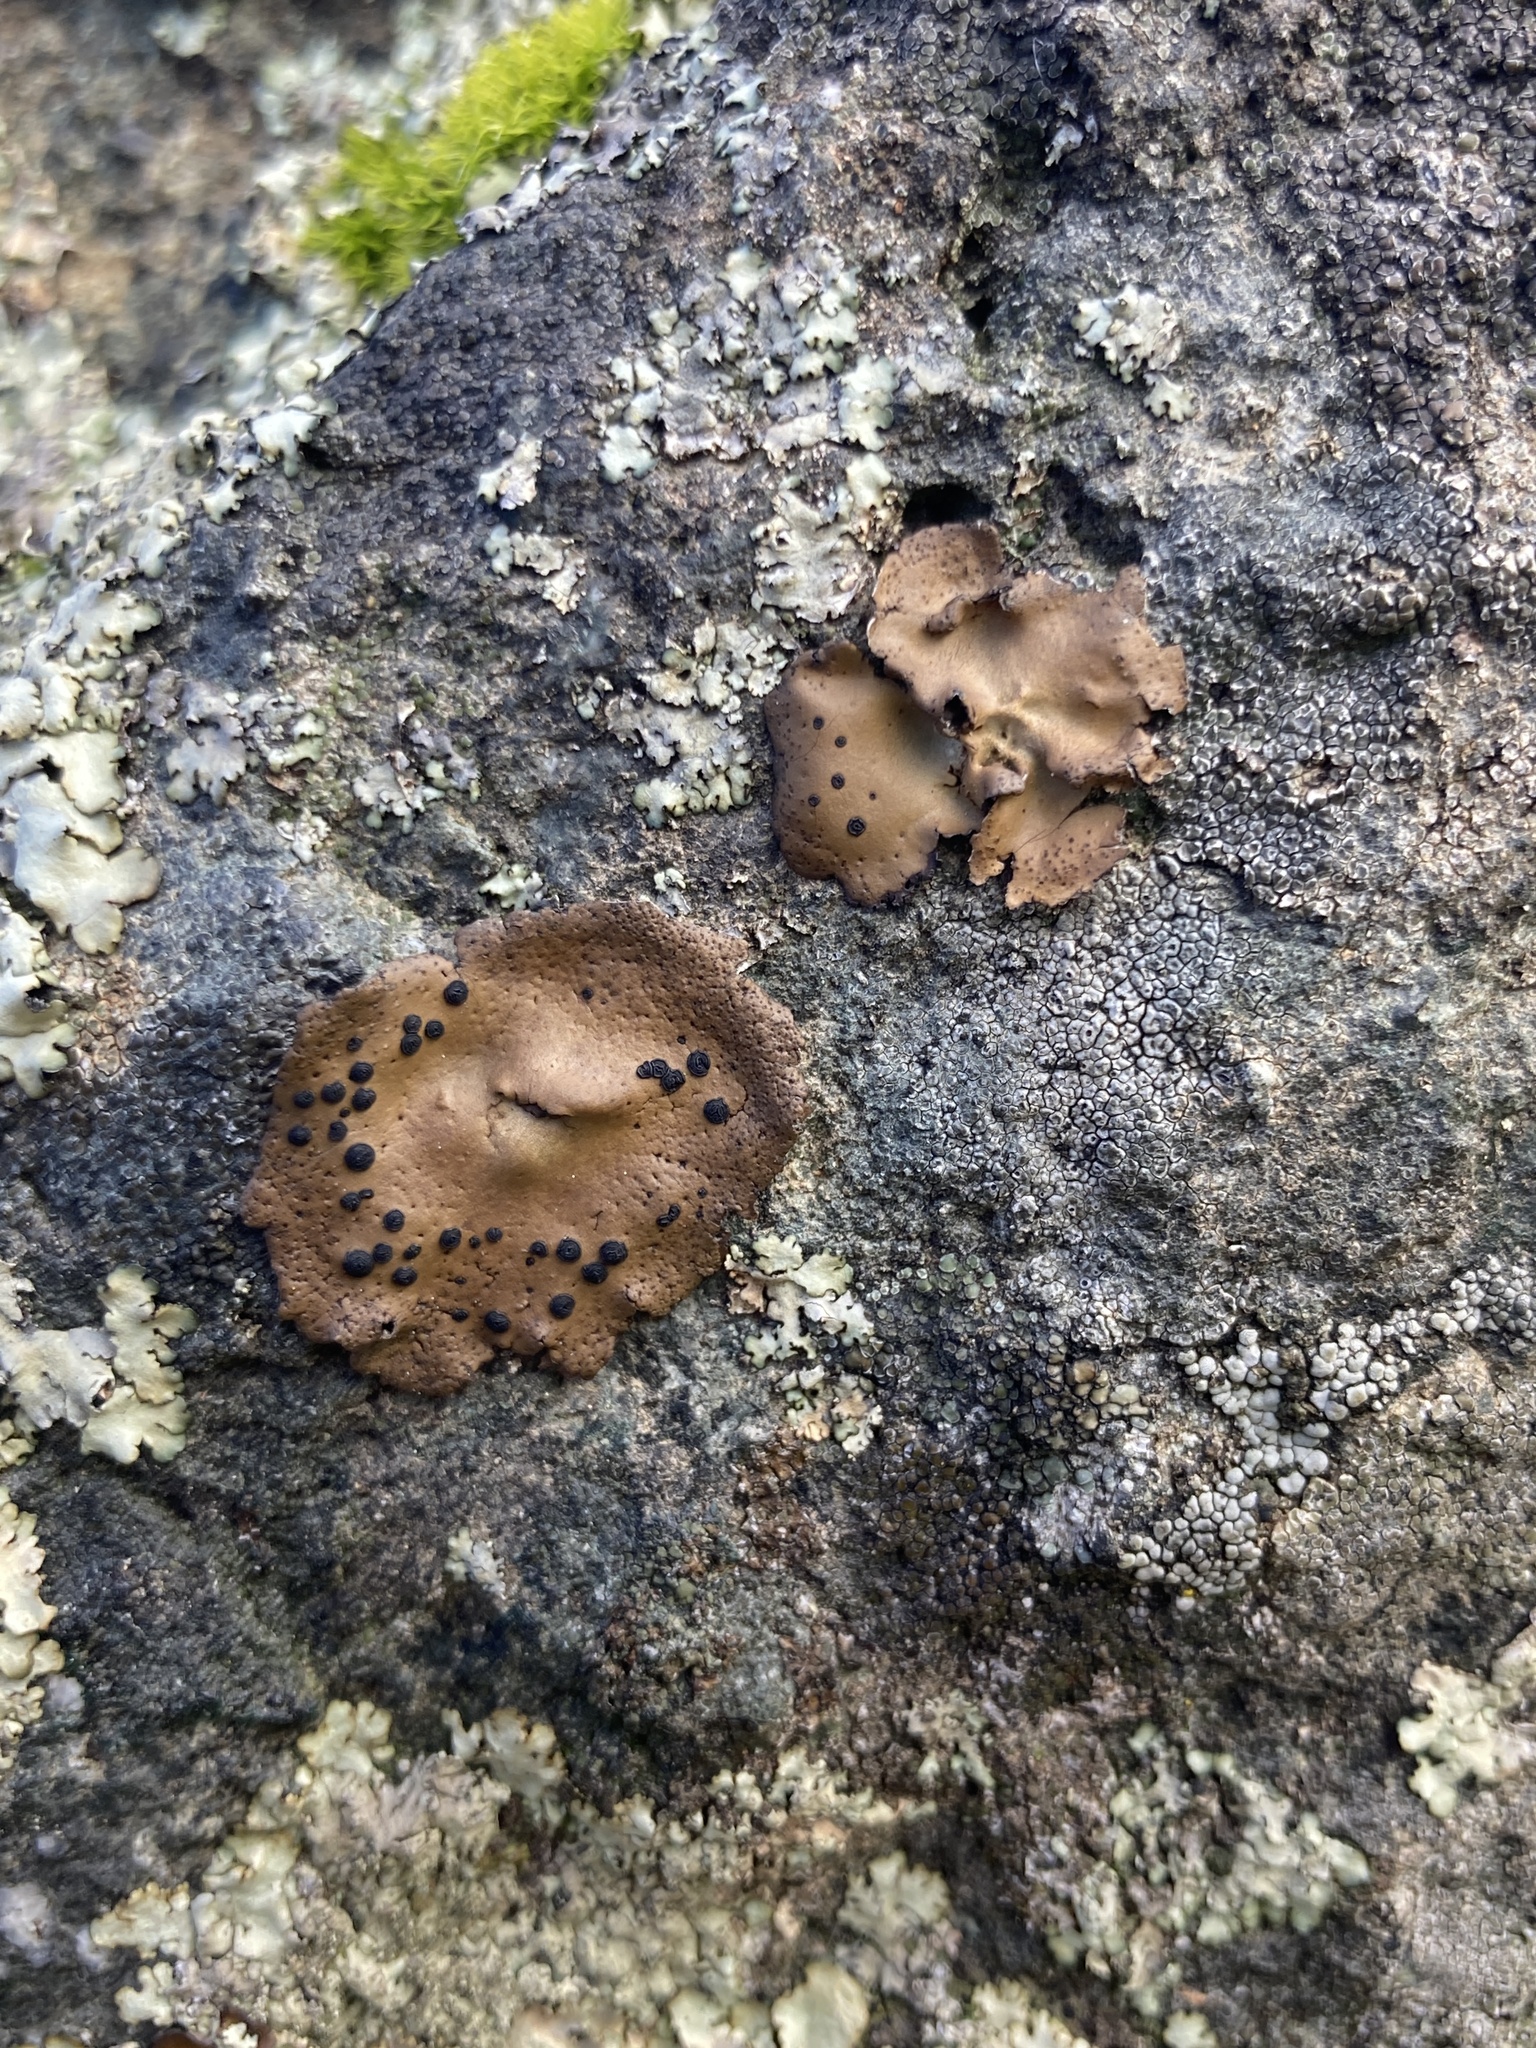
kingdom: Fungi
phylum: Ascomycota
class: Lecanoromycetes
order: Umbilicariales
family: Umbilicariaceae
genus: Umbilicaria
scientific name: Umbilicaria phaea
